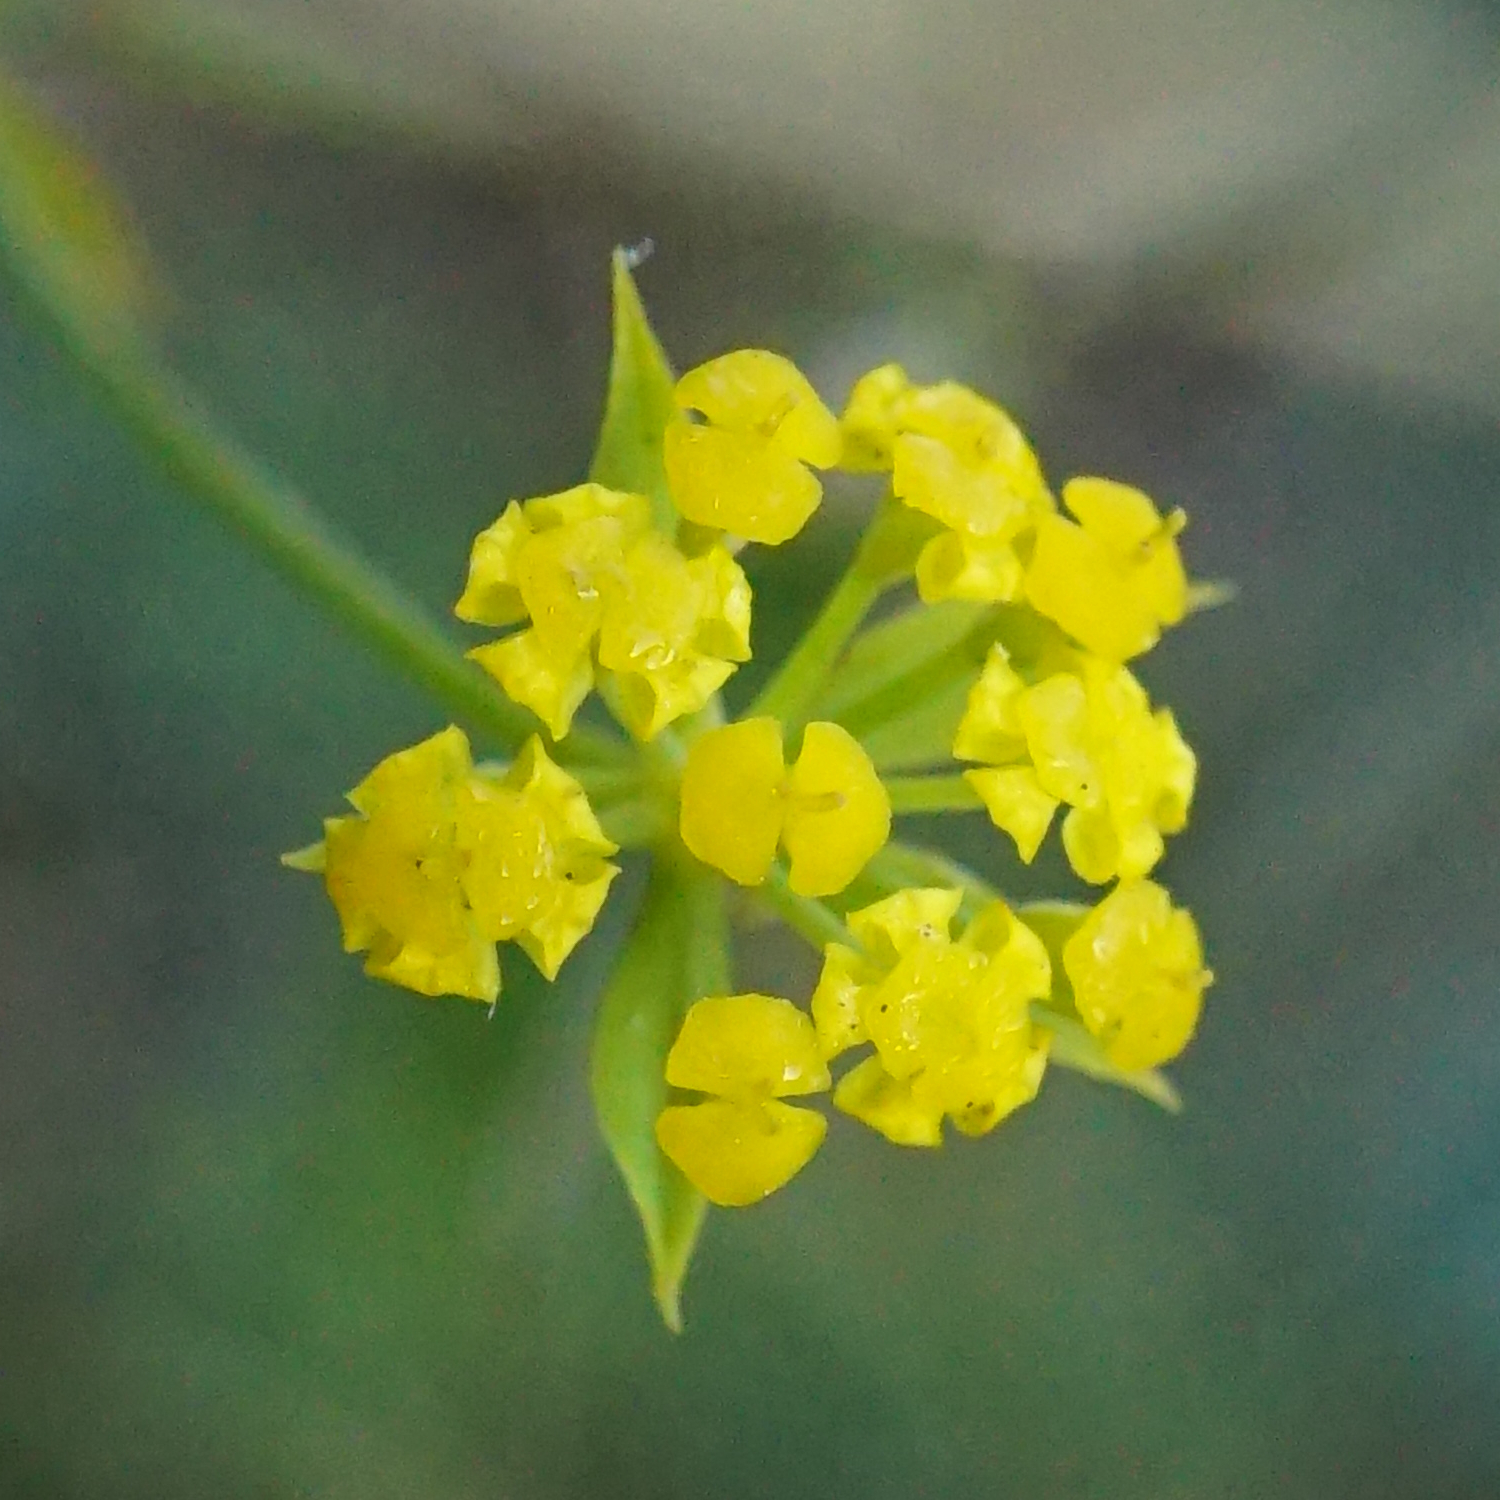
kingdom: Plantae
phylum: Tracheophyta
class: Magnoliopsida
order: Apiales
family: Apiaceae
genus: Bupleurum
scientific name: Bupleurum falcatum
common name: Sickle-leaved hare's-ear
